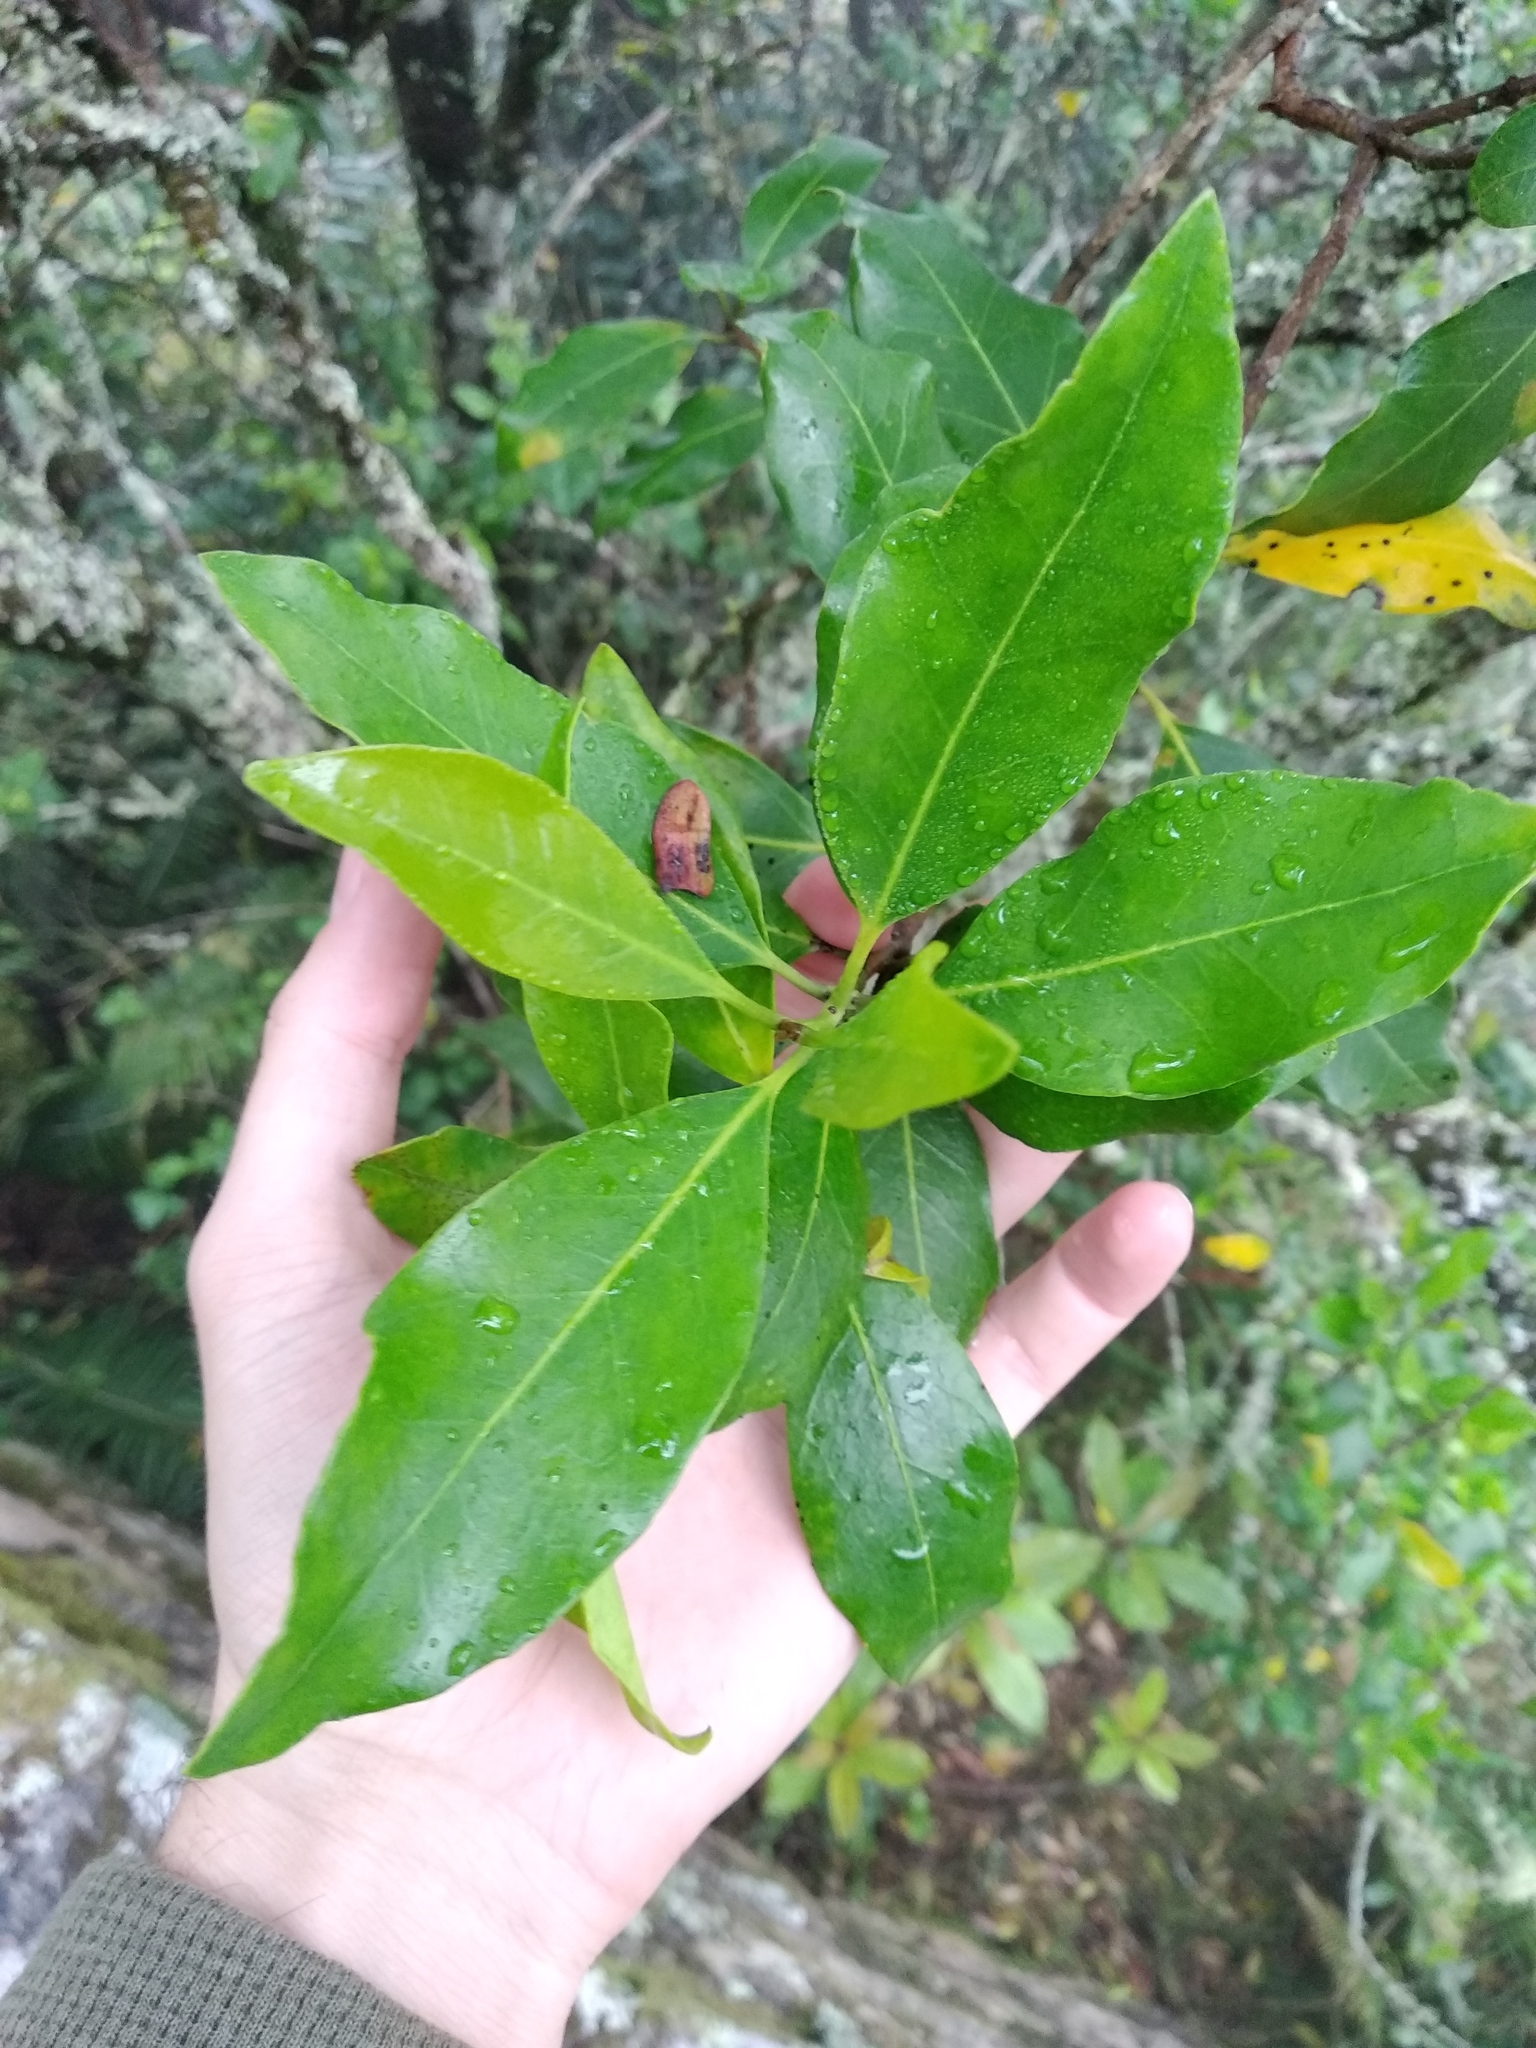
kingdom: Plantae
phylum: Tracheophyta
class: Magnoliopsida
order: Lamiales
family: Oleaceae
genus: Olea
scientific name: Olea capensis
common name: Black ironwood
